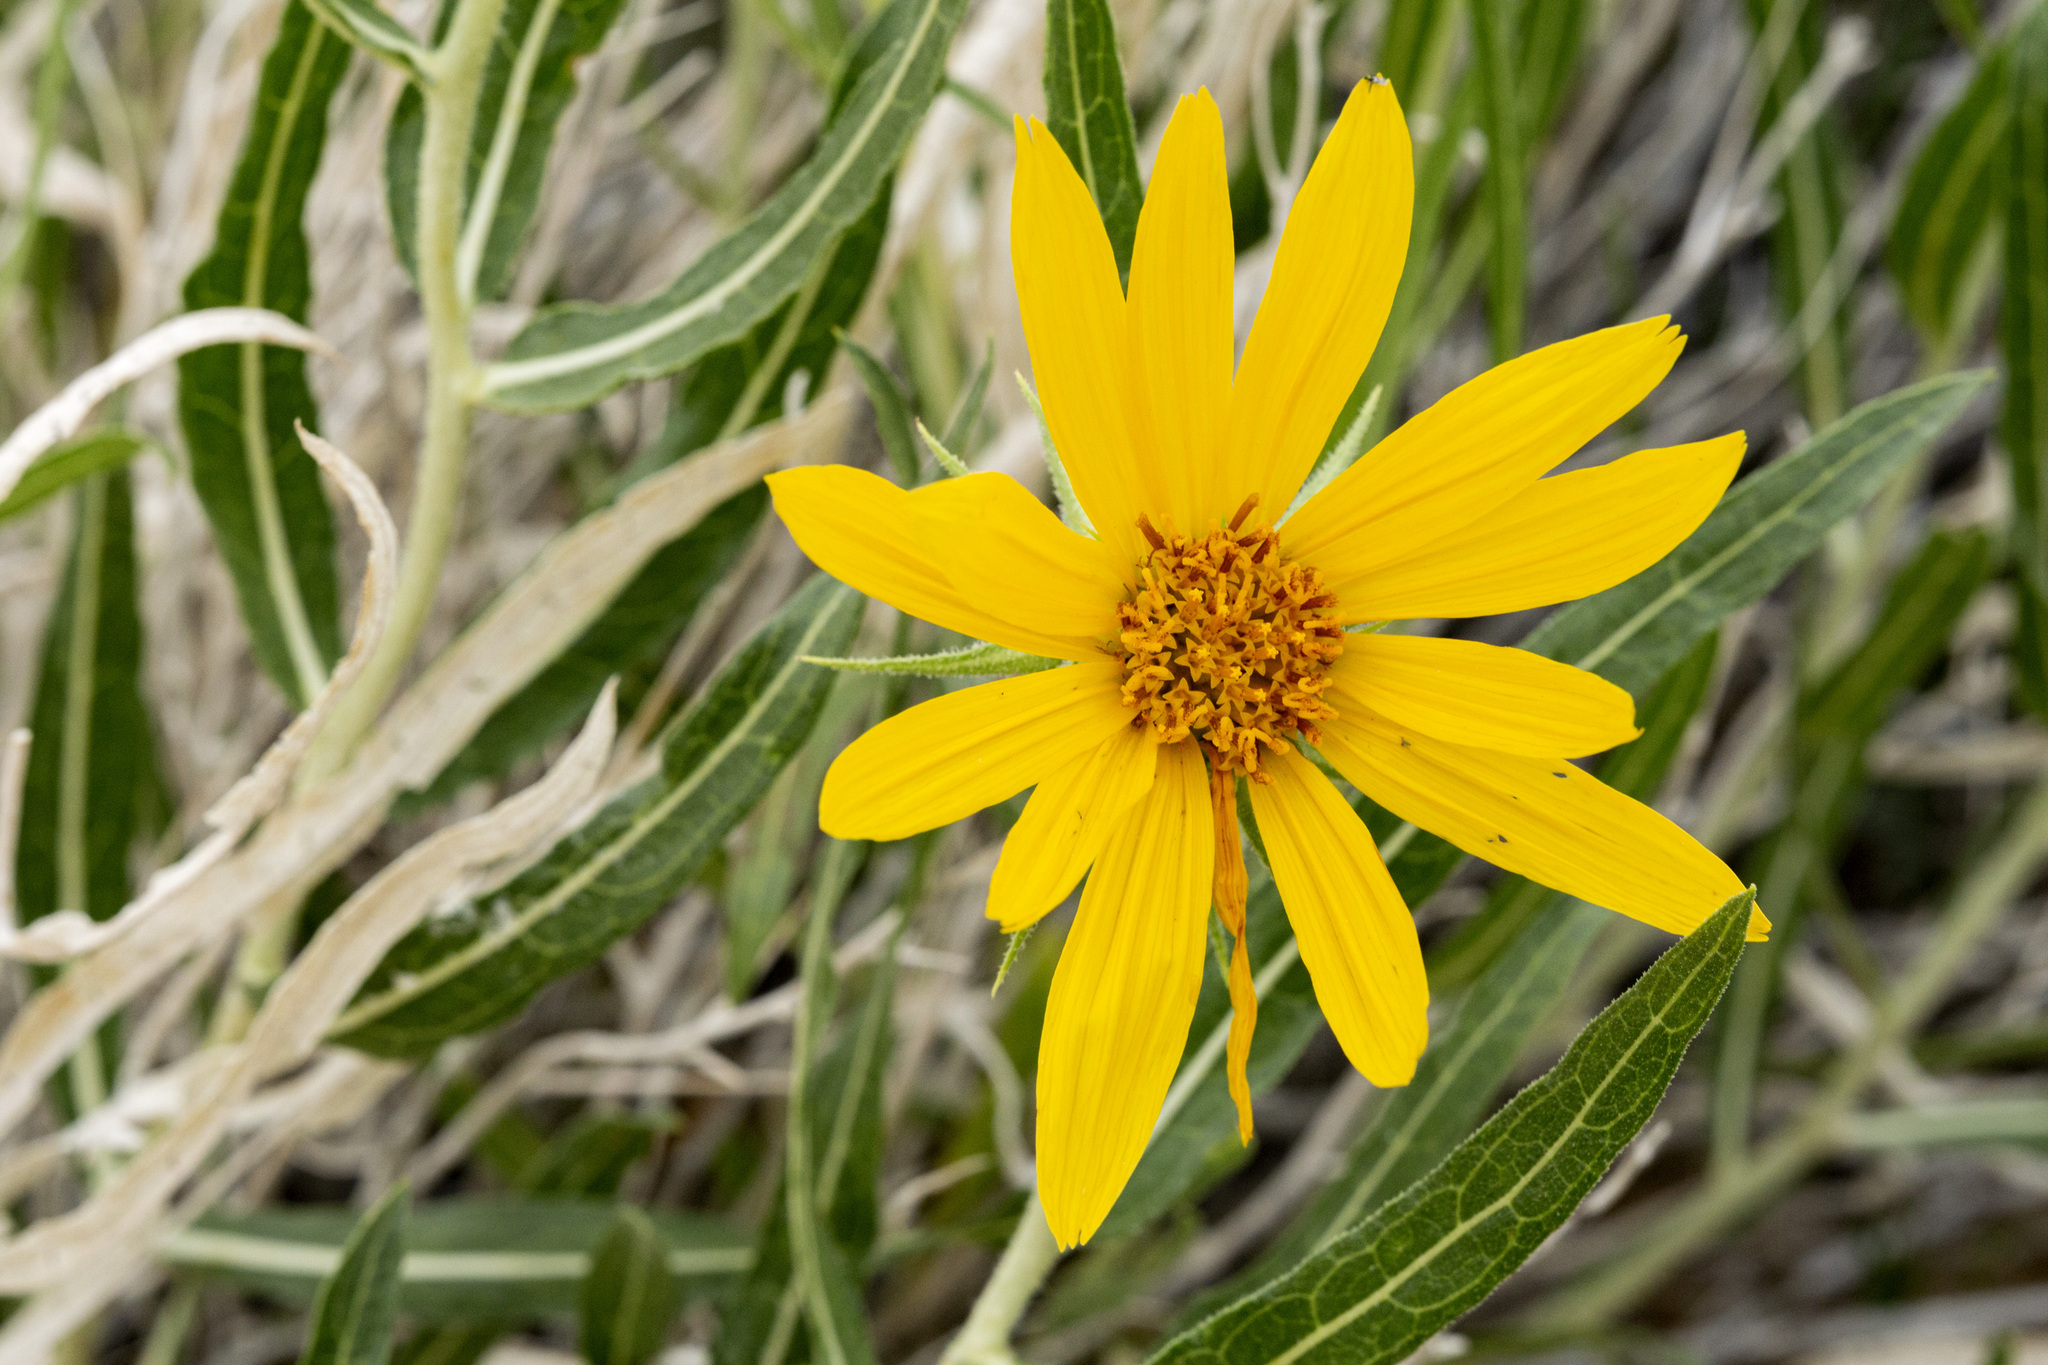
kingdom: Plantae
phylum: Tracheophyta
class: Magnoliopsida
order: Asterales
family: Asteraceae
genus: Scabrethia
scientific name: Scabrethia scabra
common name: Rough mules's-ears
